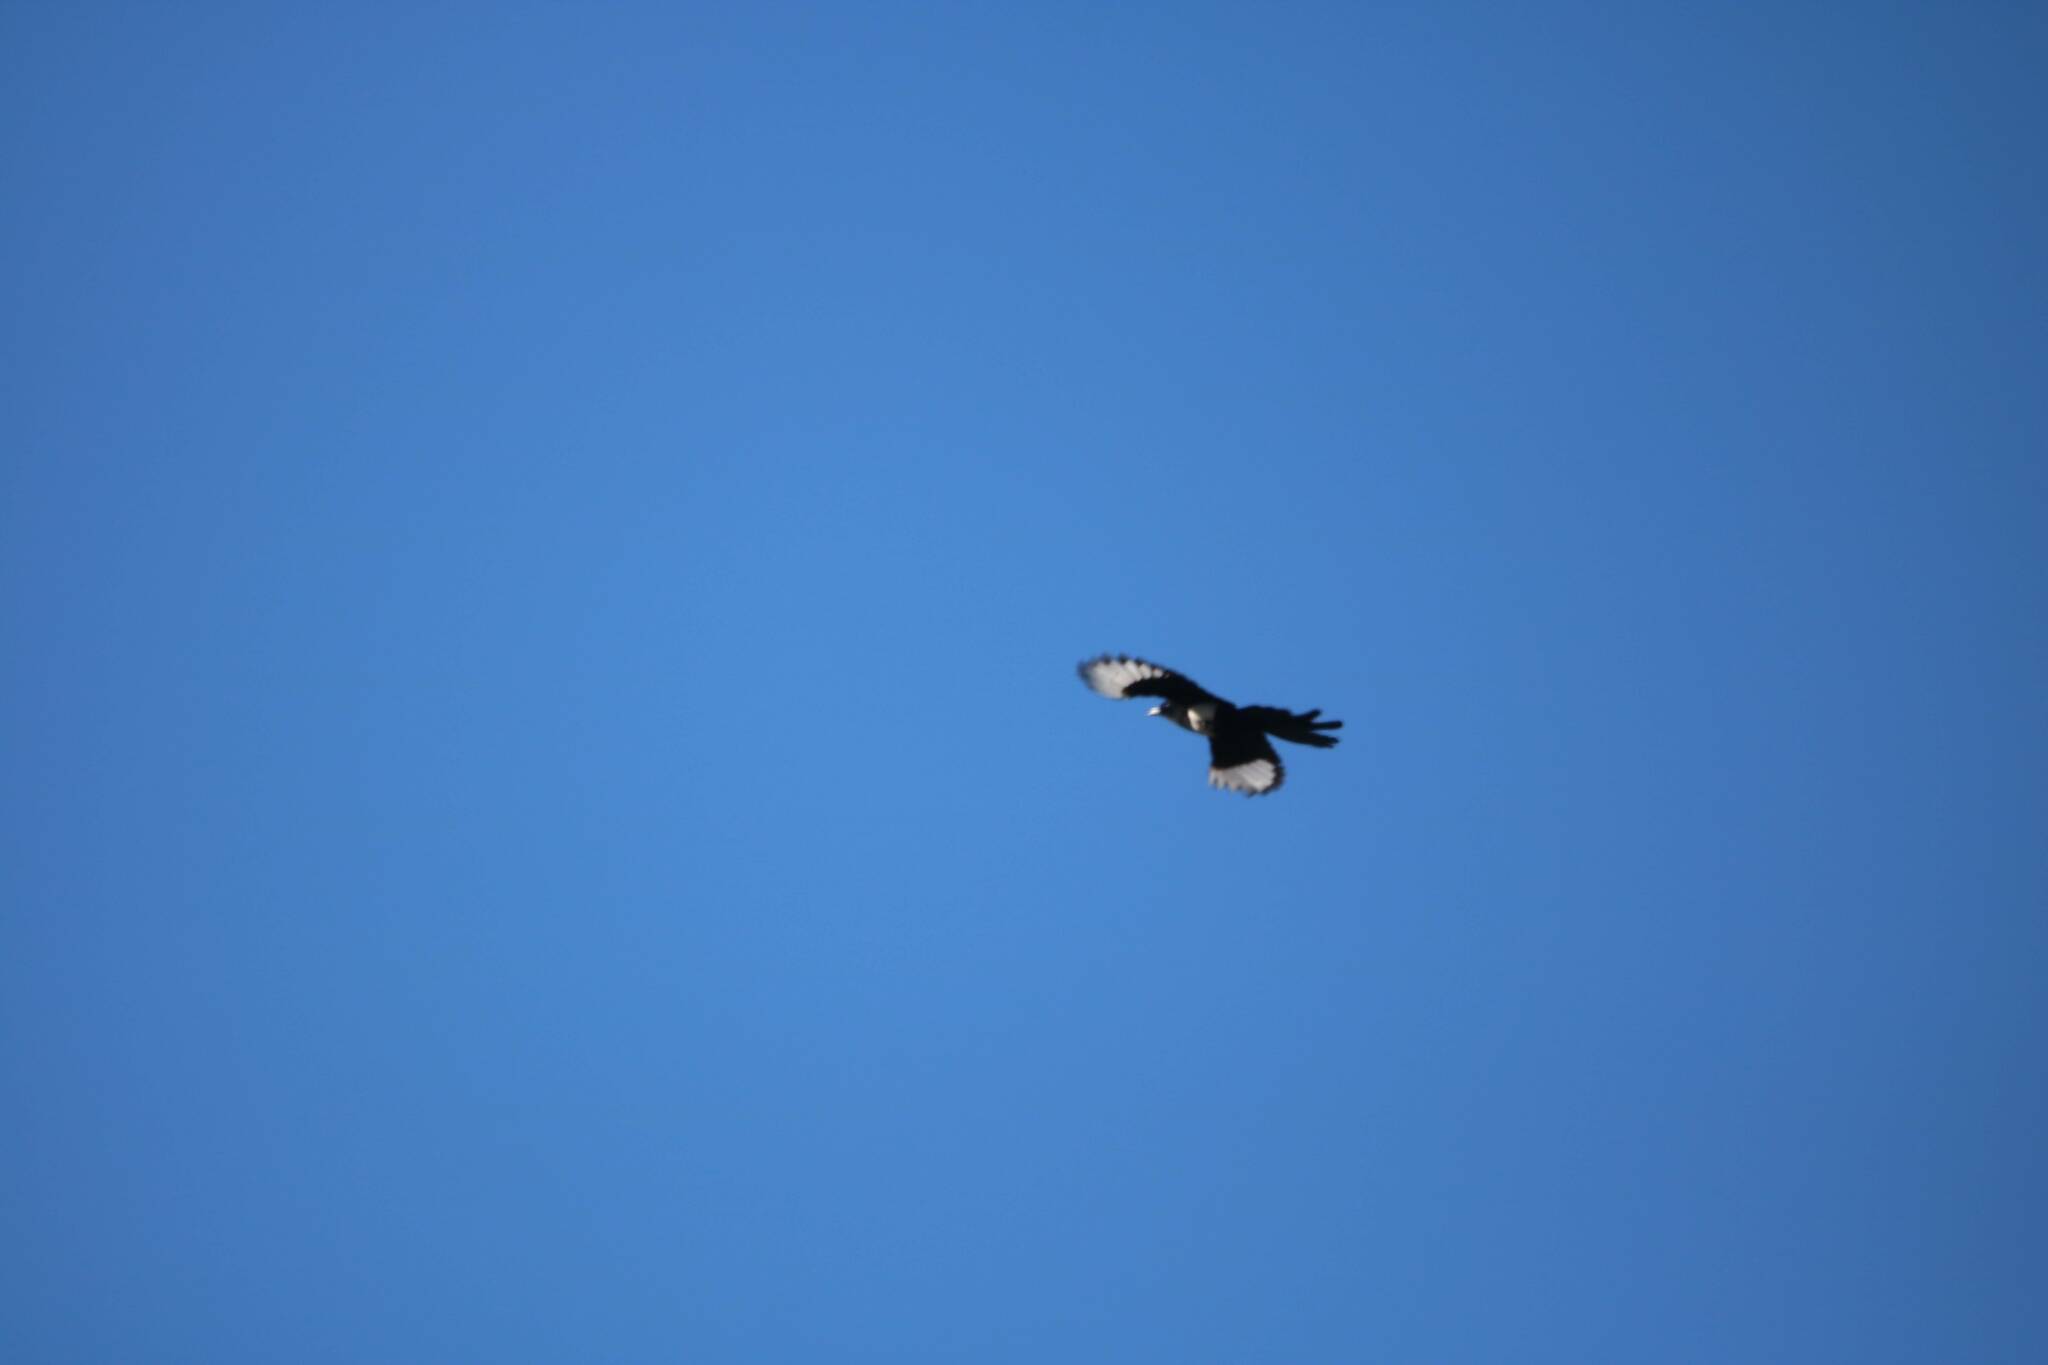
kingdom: Animalia
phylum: Chordata
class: Aves
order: Passeriformes
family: Corvidae
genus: Pica
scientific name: Pica mauritanica
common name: Maghreb magpie
